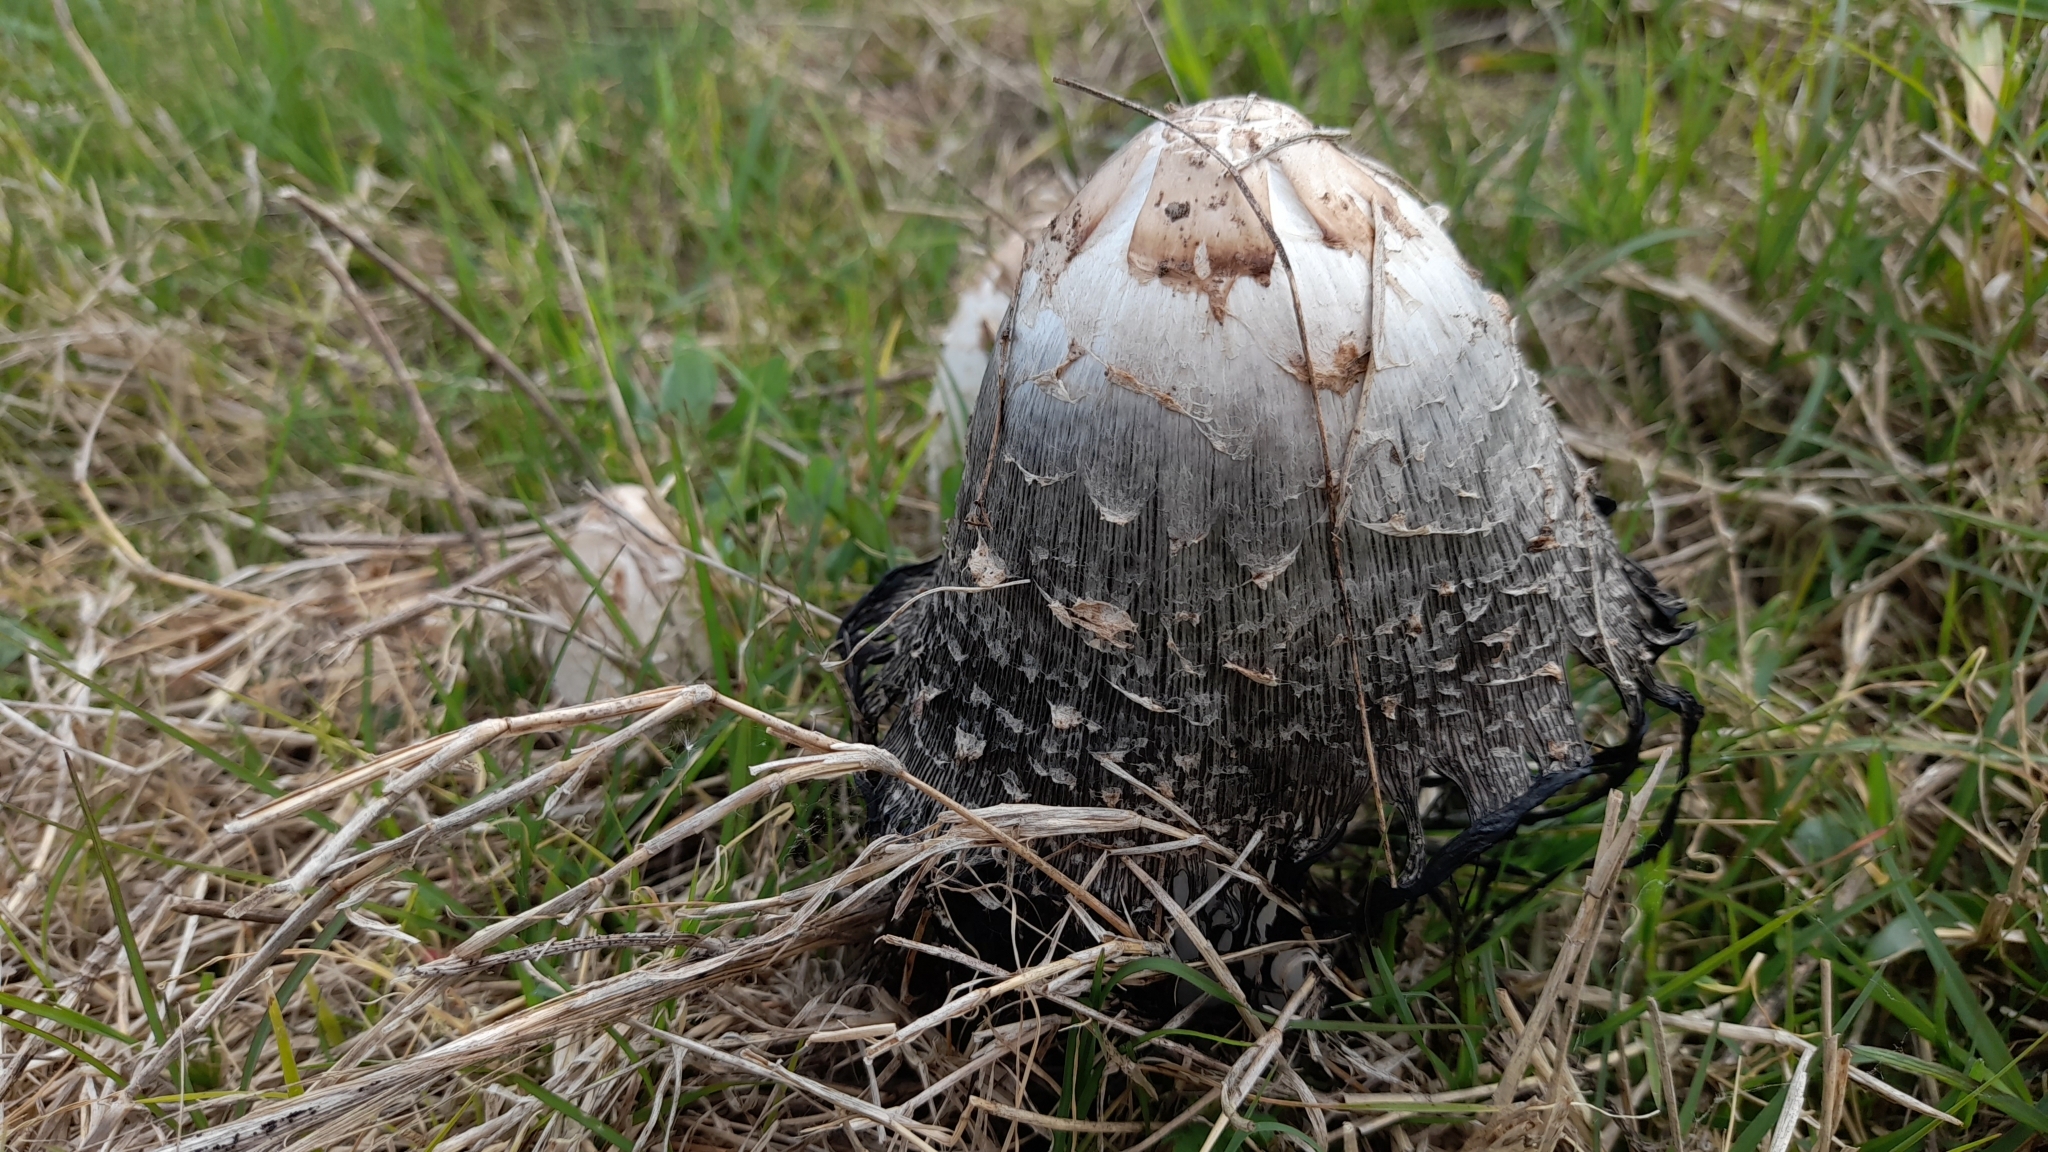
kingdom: Fungi
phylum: Basidiomycota
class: Agaricomycetes
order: Agaricales
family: Agaricaceae
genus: Coprinus
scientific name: Coprinus comatus
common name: Lawyer's wig
